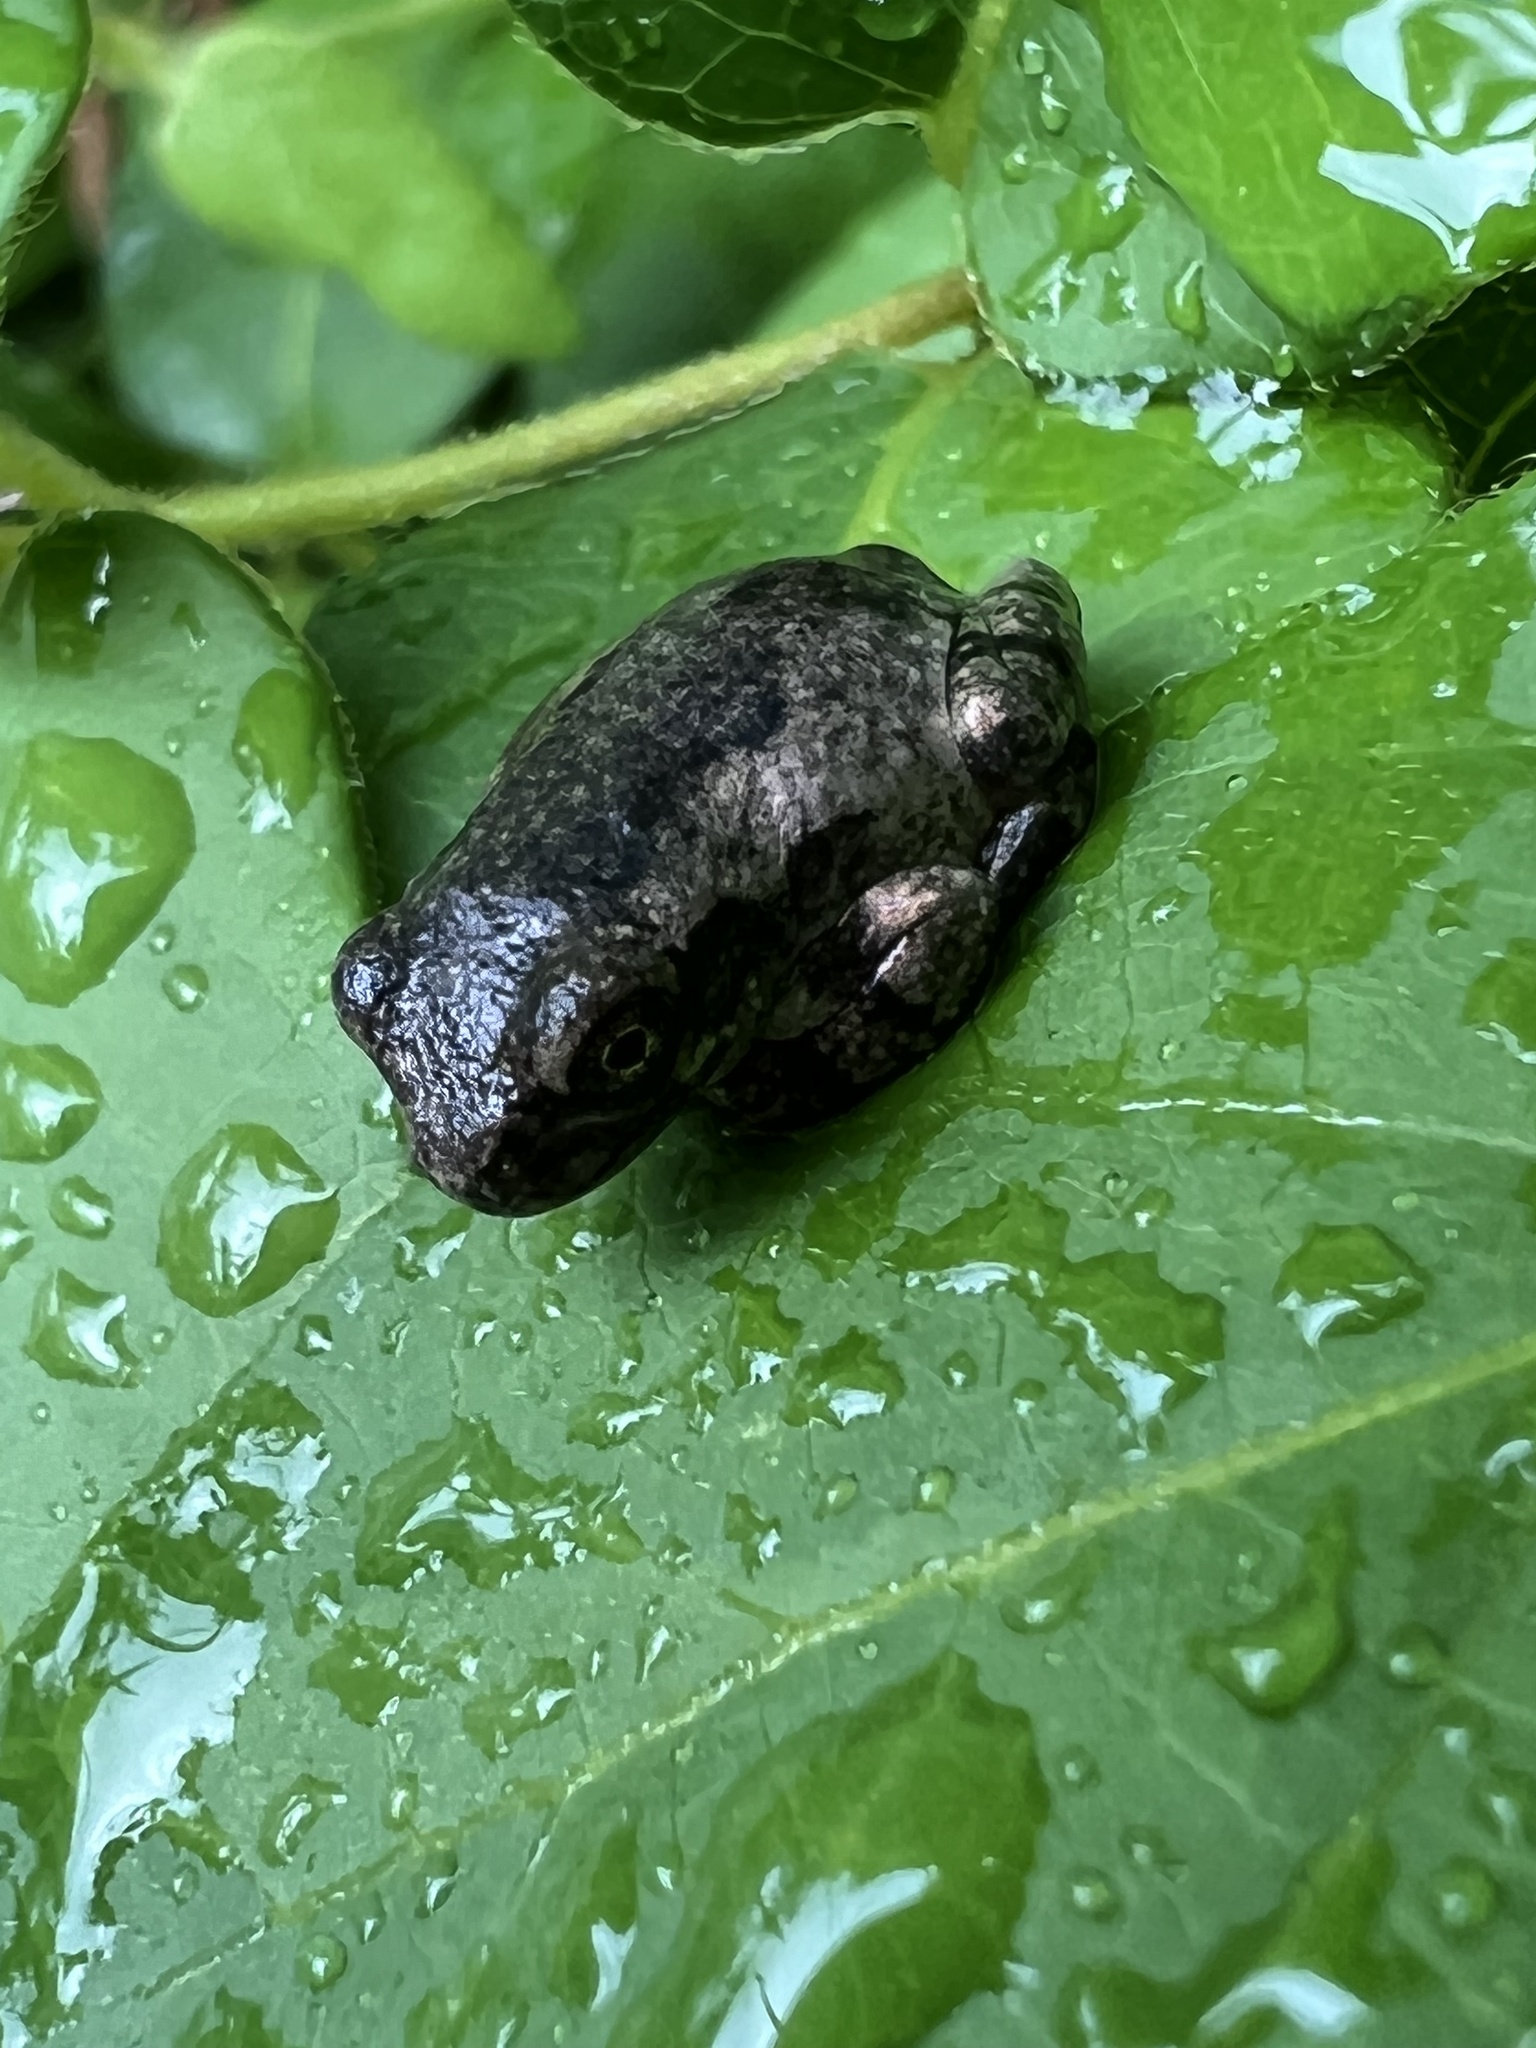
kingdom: Animalia
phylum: Chordata
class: Amphibia
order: Anura
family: Hylidae
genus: Hyla
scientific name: Hyla
